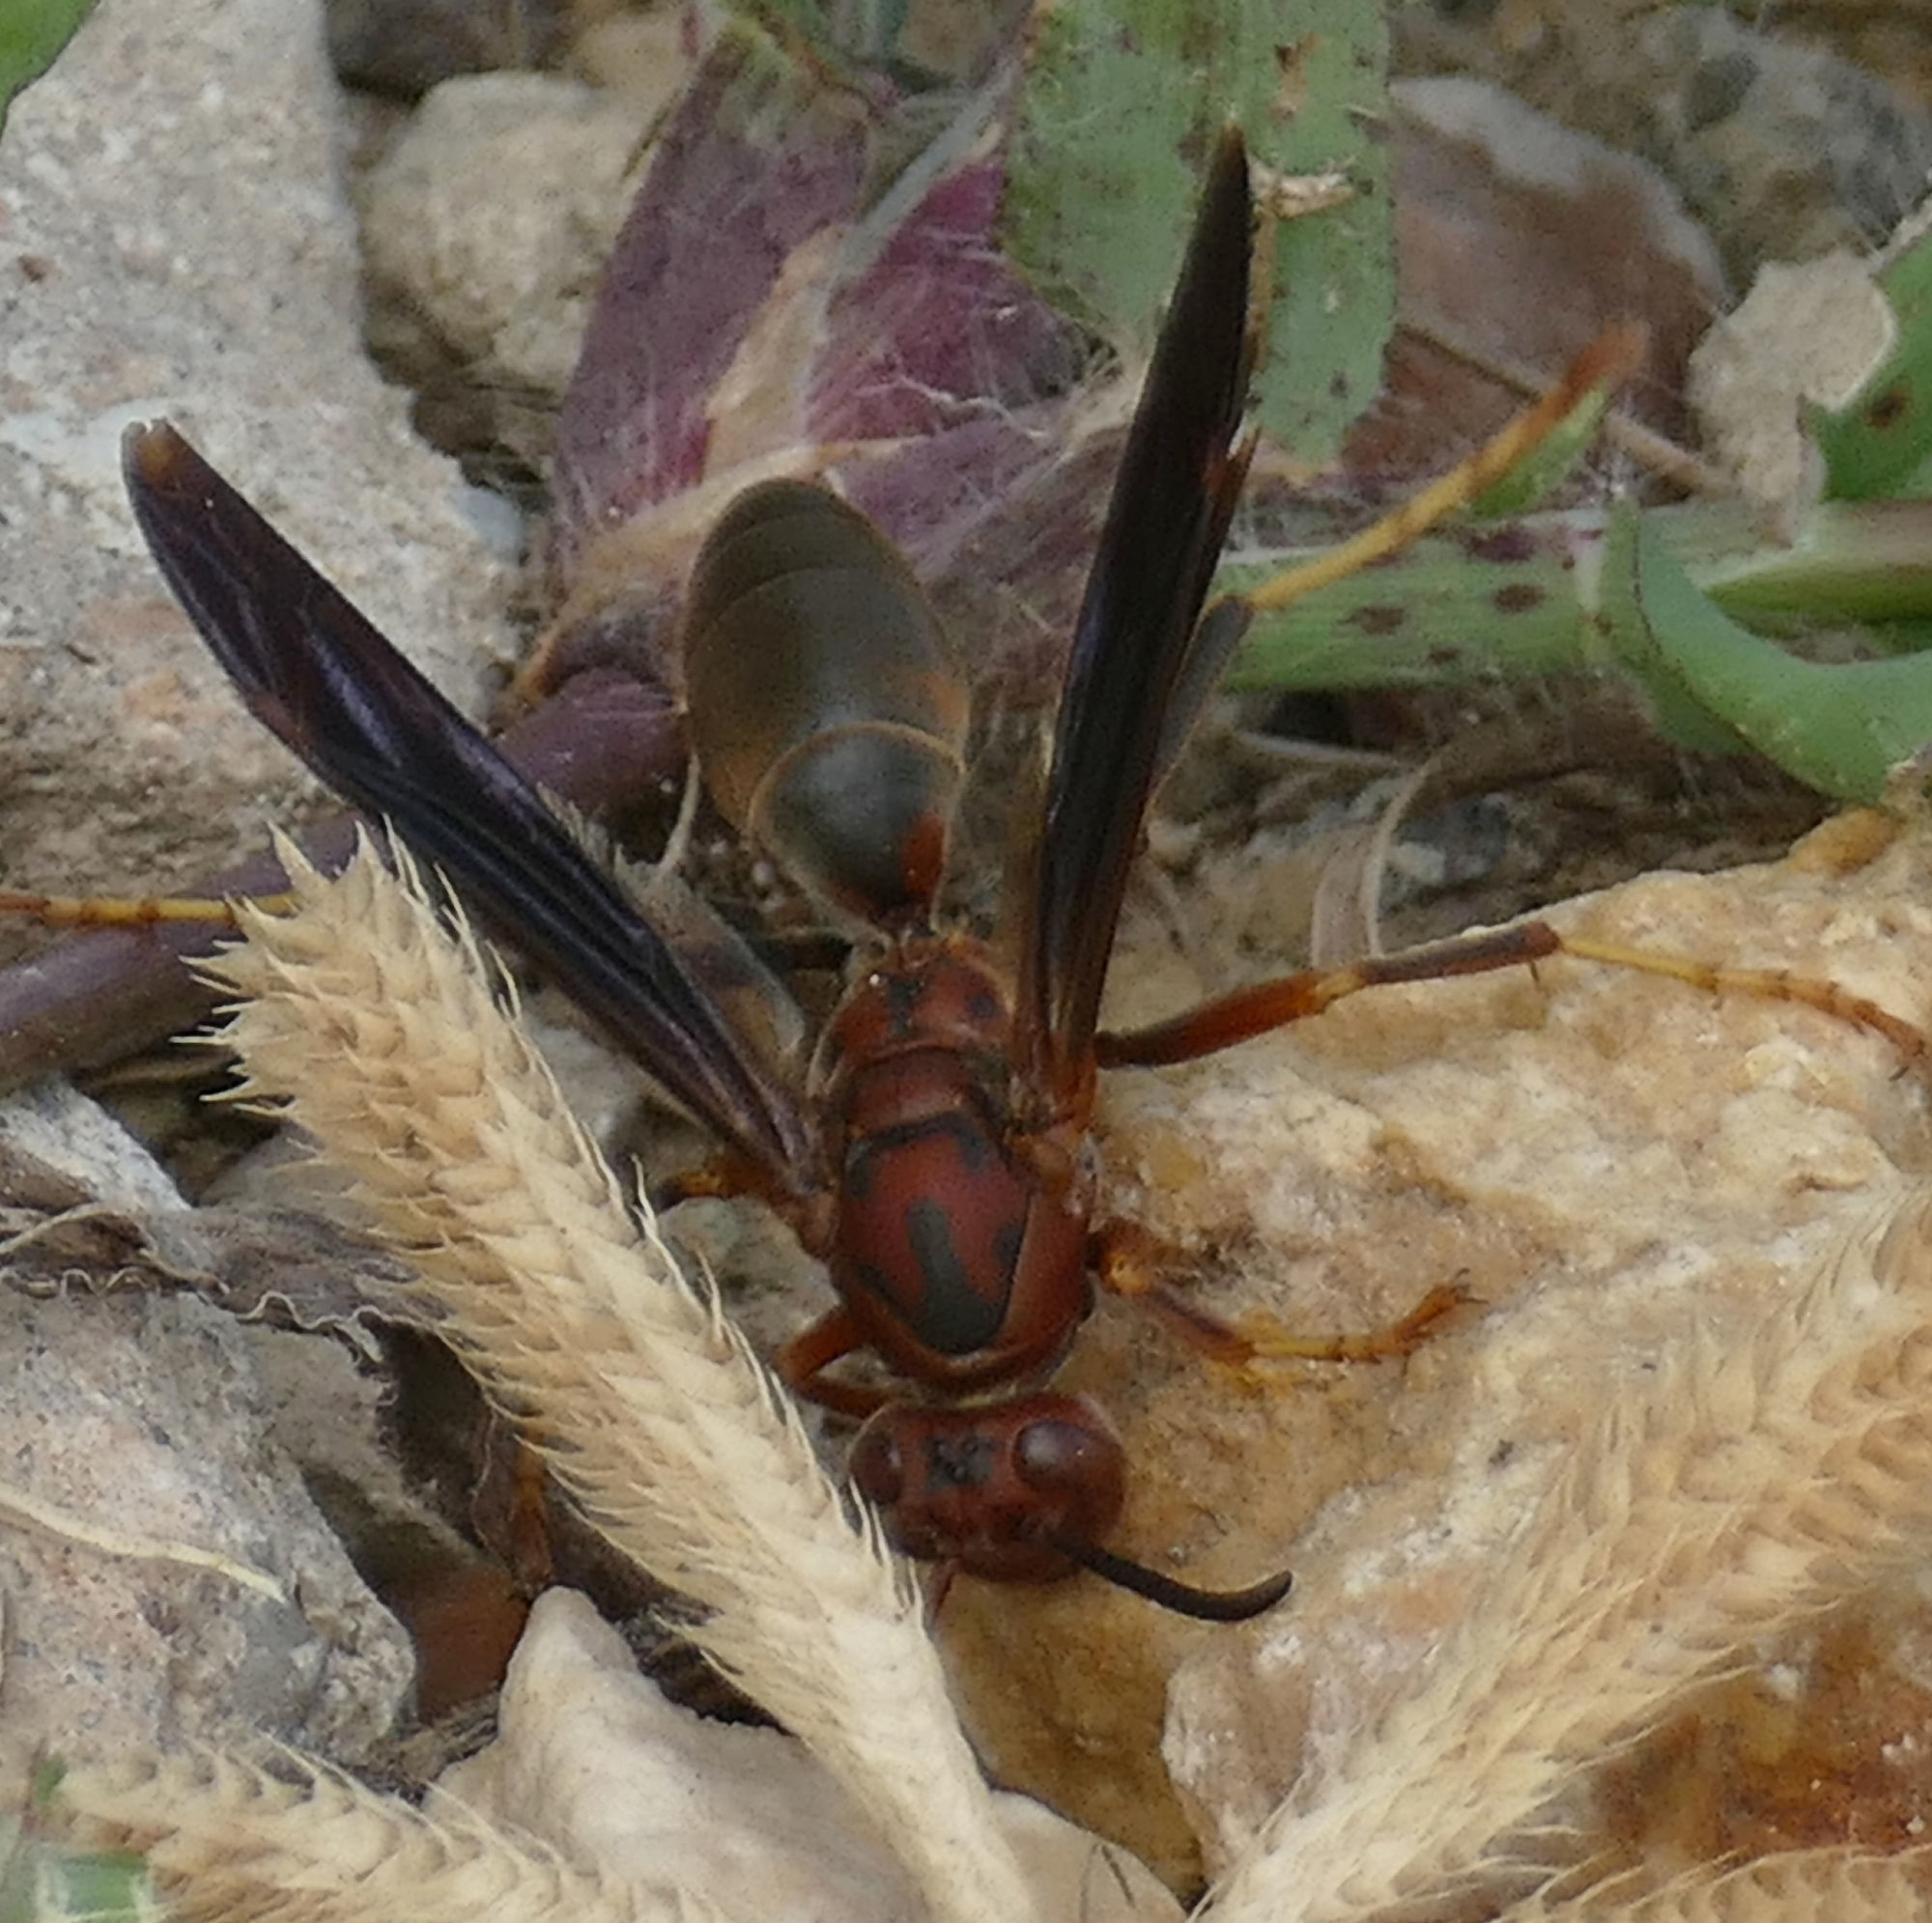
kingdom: Animalia
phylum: Arthropoda
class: Insecta
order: Hymenoptera
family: Eumenidae
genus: Polistes
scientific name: Polistes metricus
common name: Metric paper wasp
